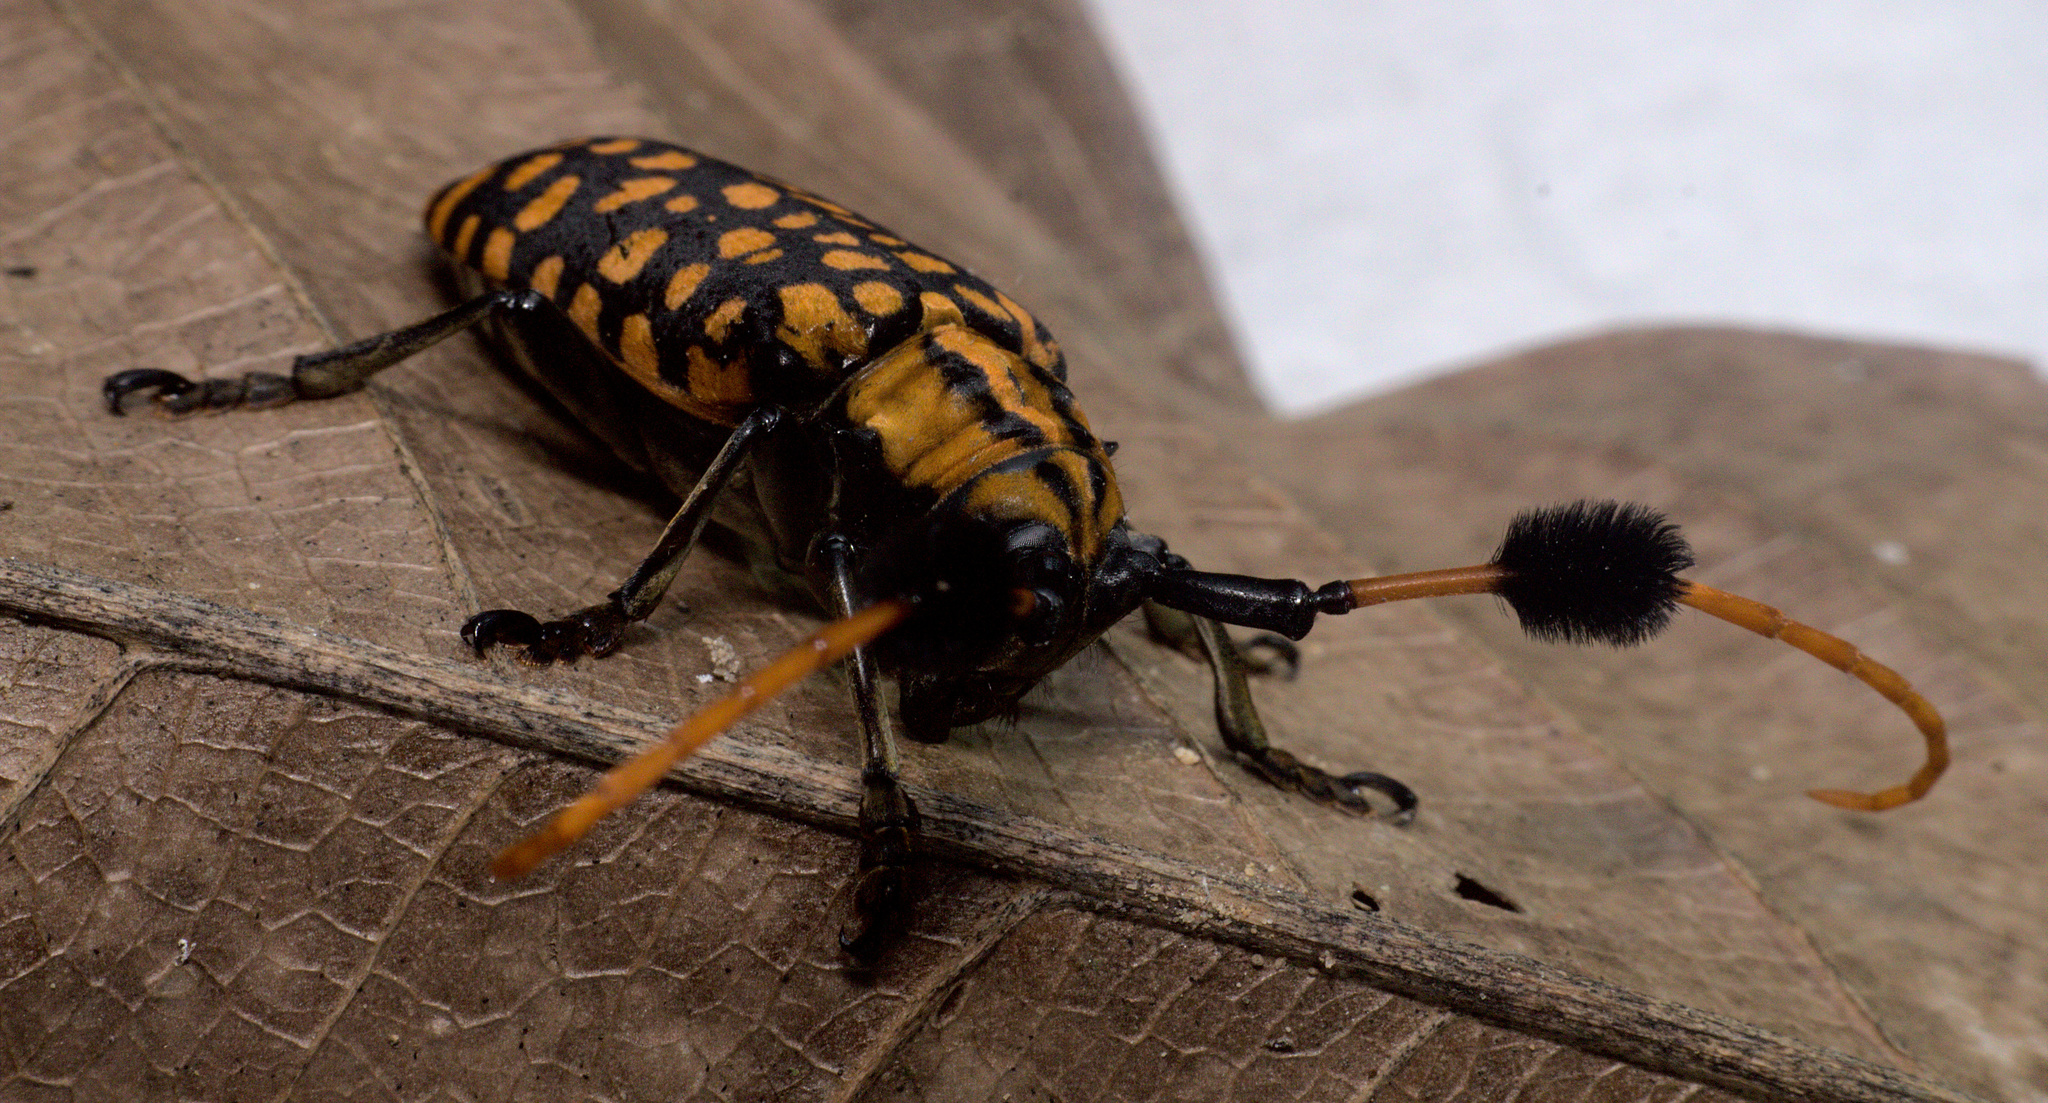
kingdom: Animalia
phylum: Arthropoda
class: Insecta
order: Coleoptera
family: Cerambycidae
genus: Aristobia
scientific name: Aristobia approximator
